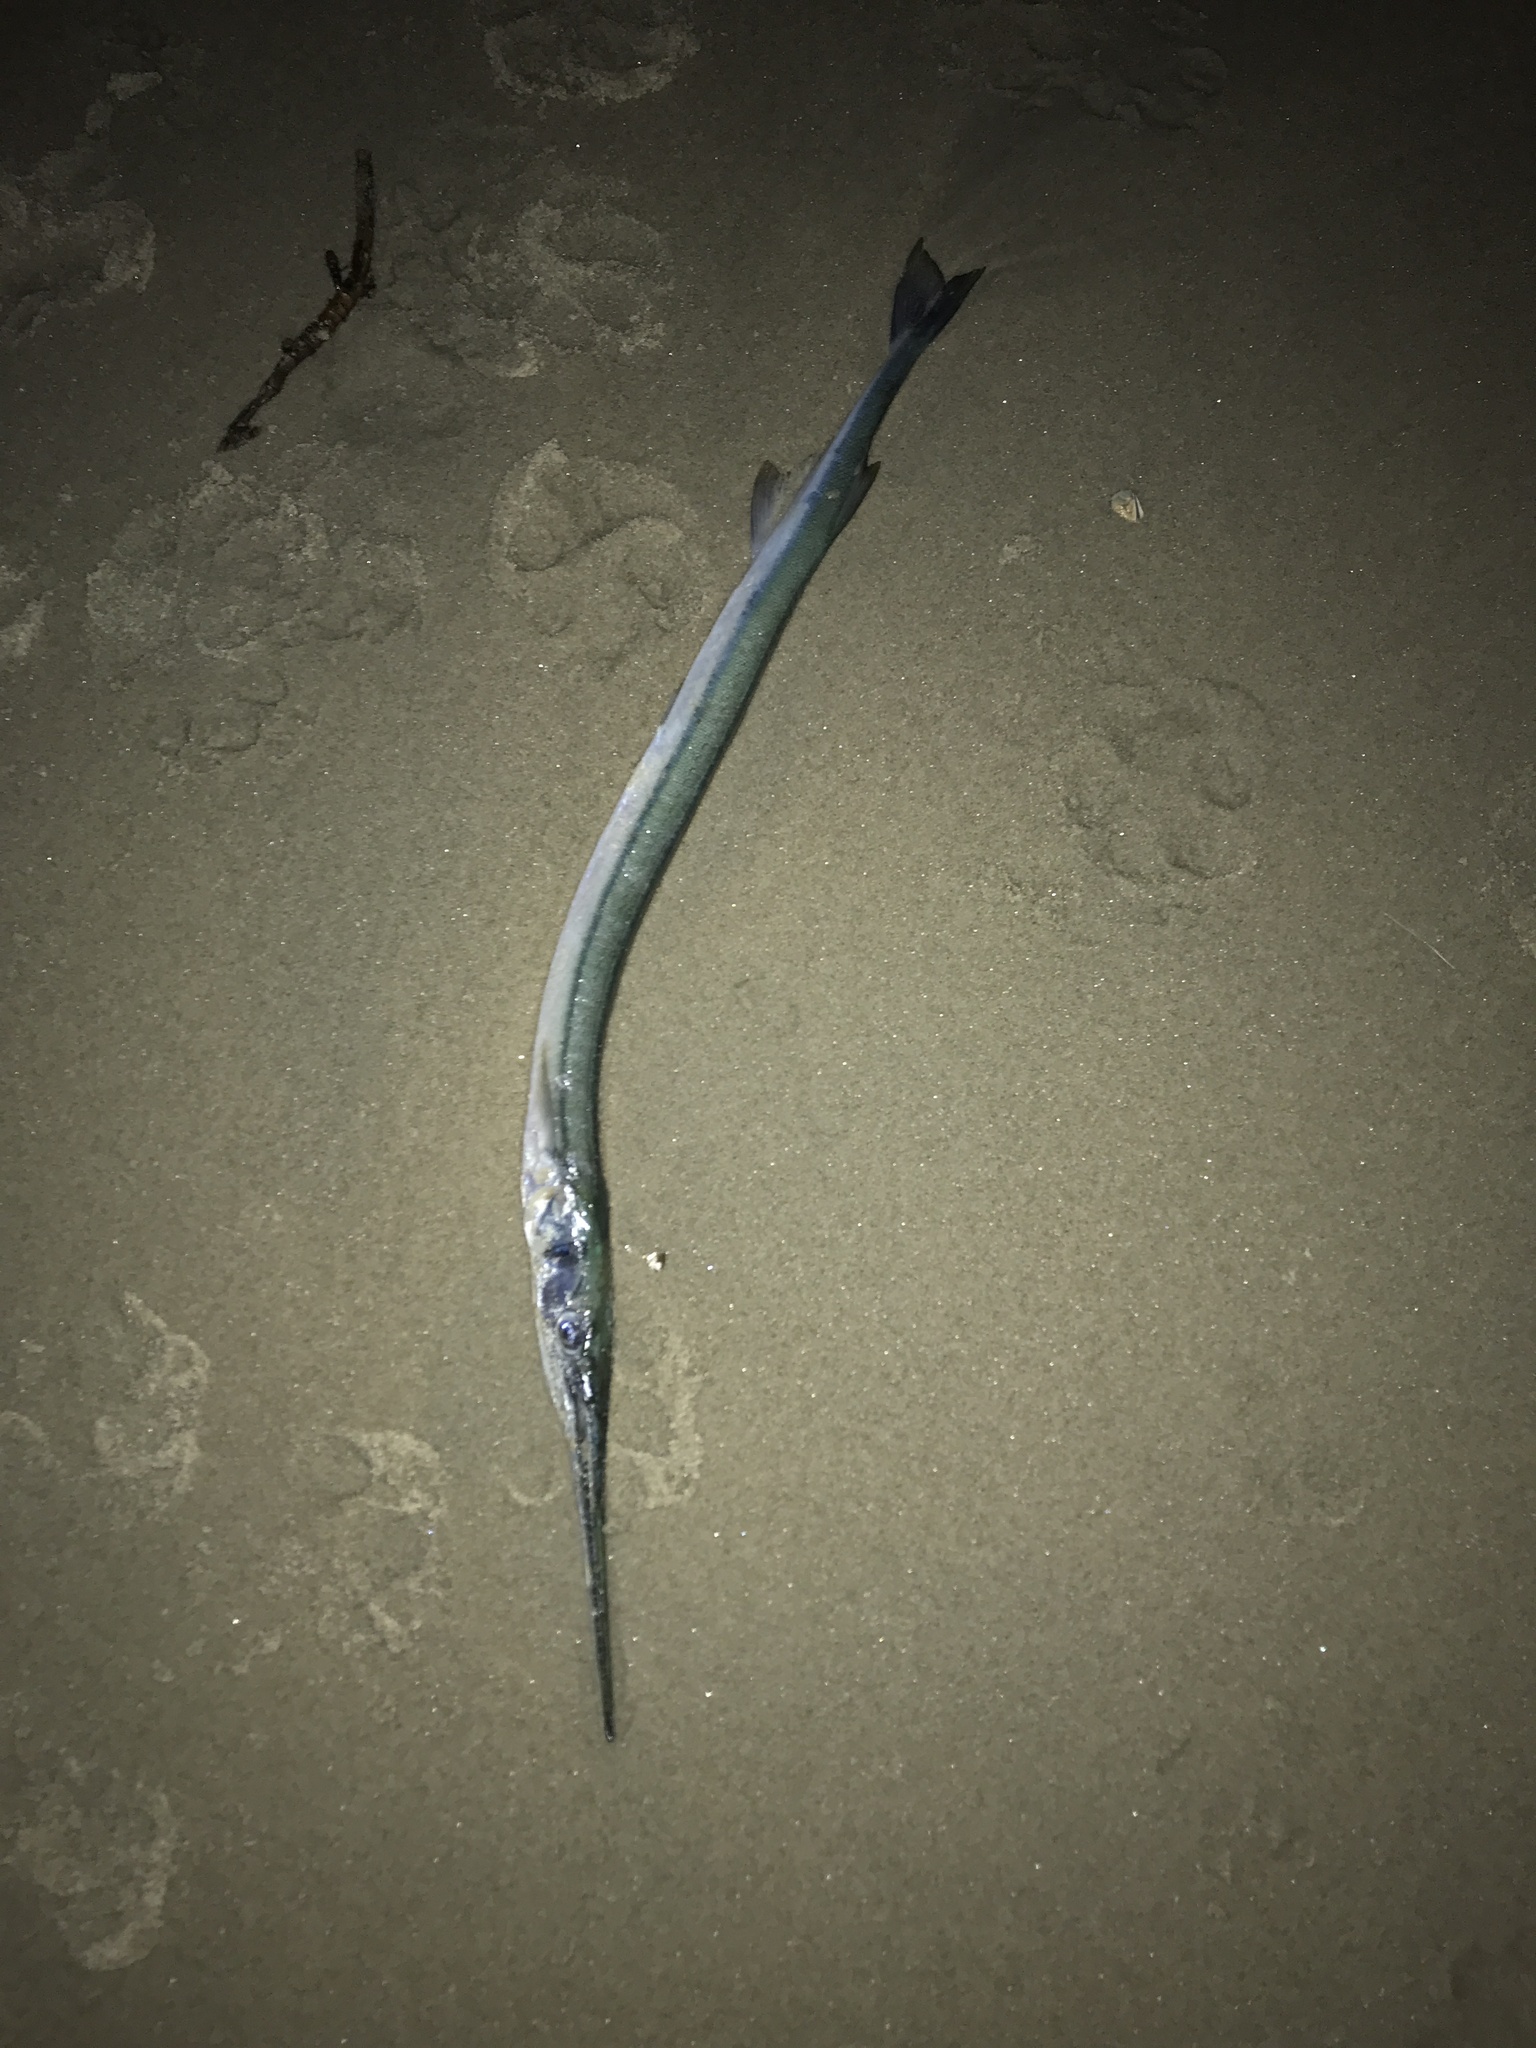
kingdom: Animalia
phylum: Chordata
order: Beloniformes
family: Belonidae
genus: Strongylura
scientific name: Strongylura marina
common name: Atlantic needlefish
